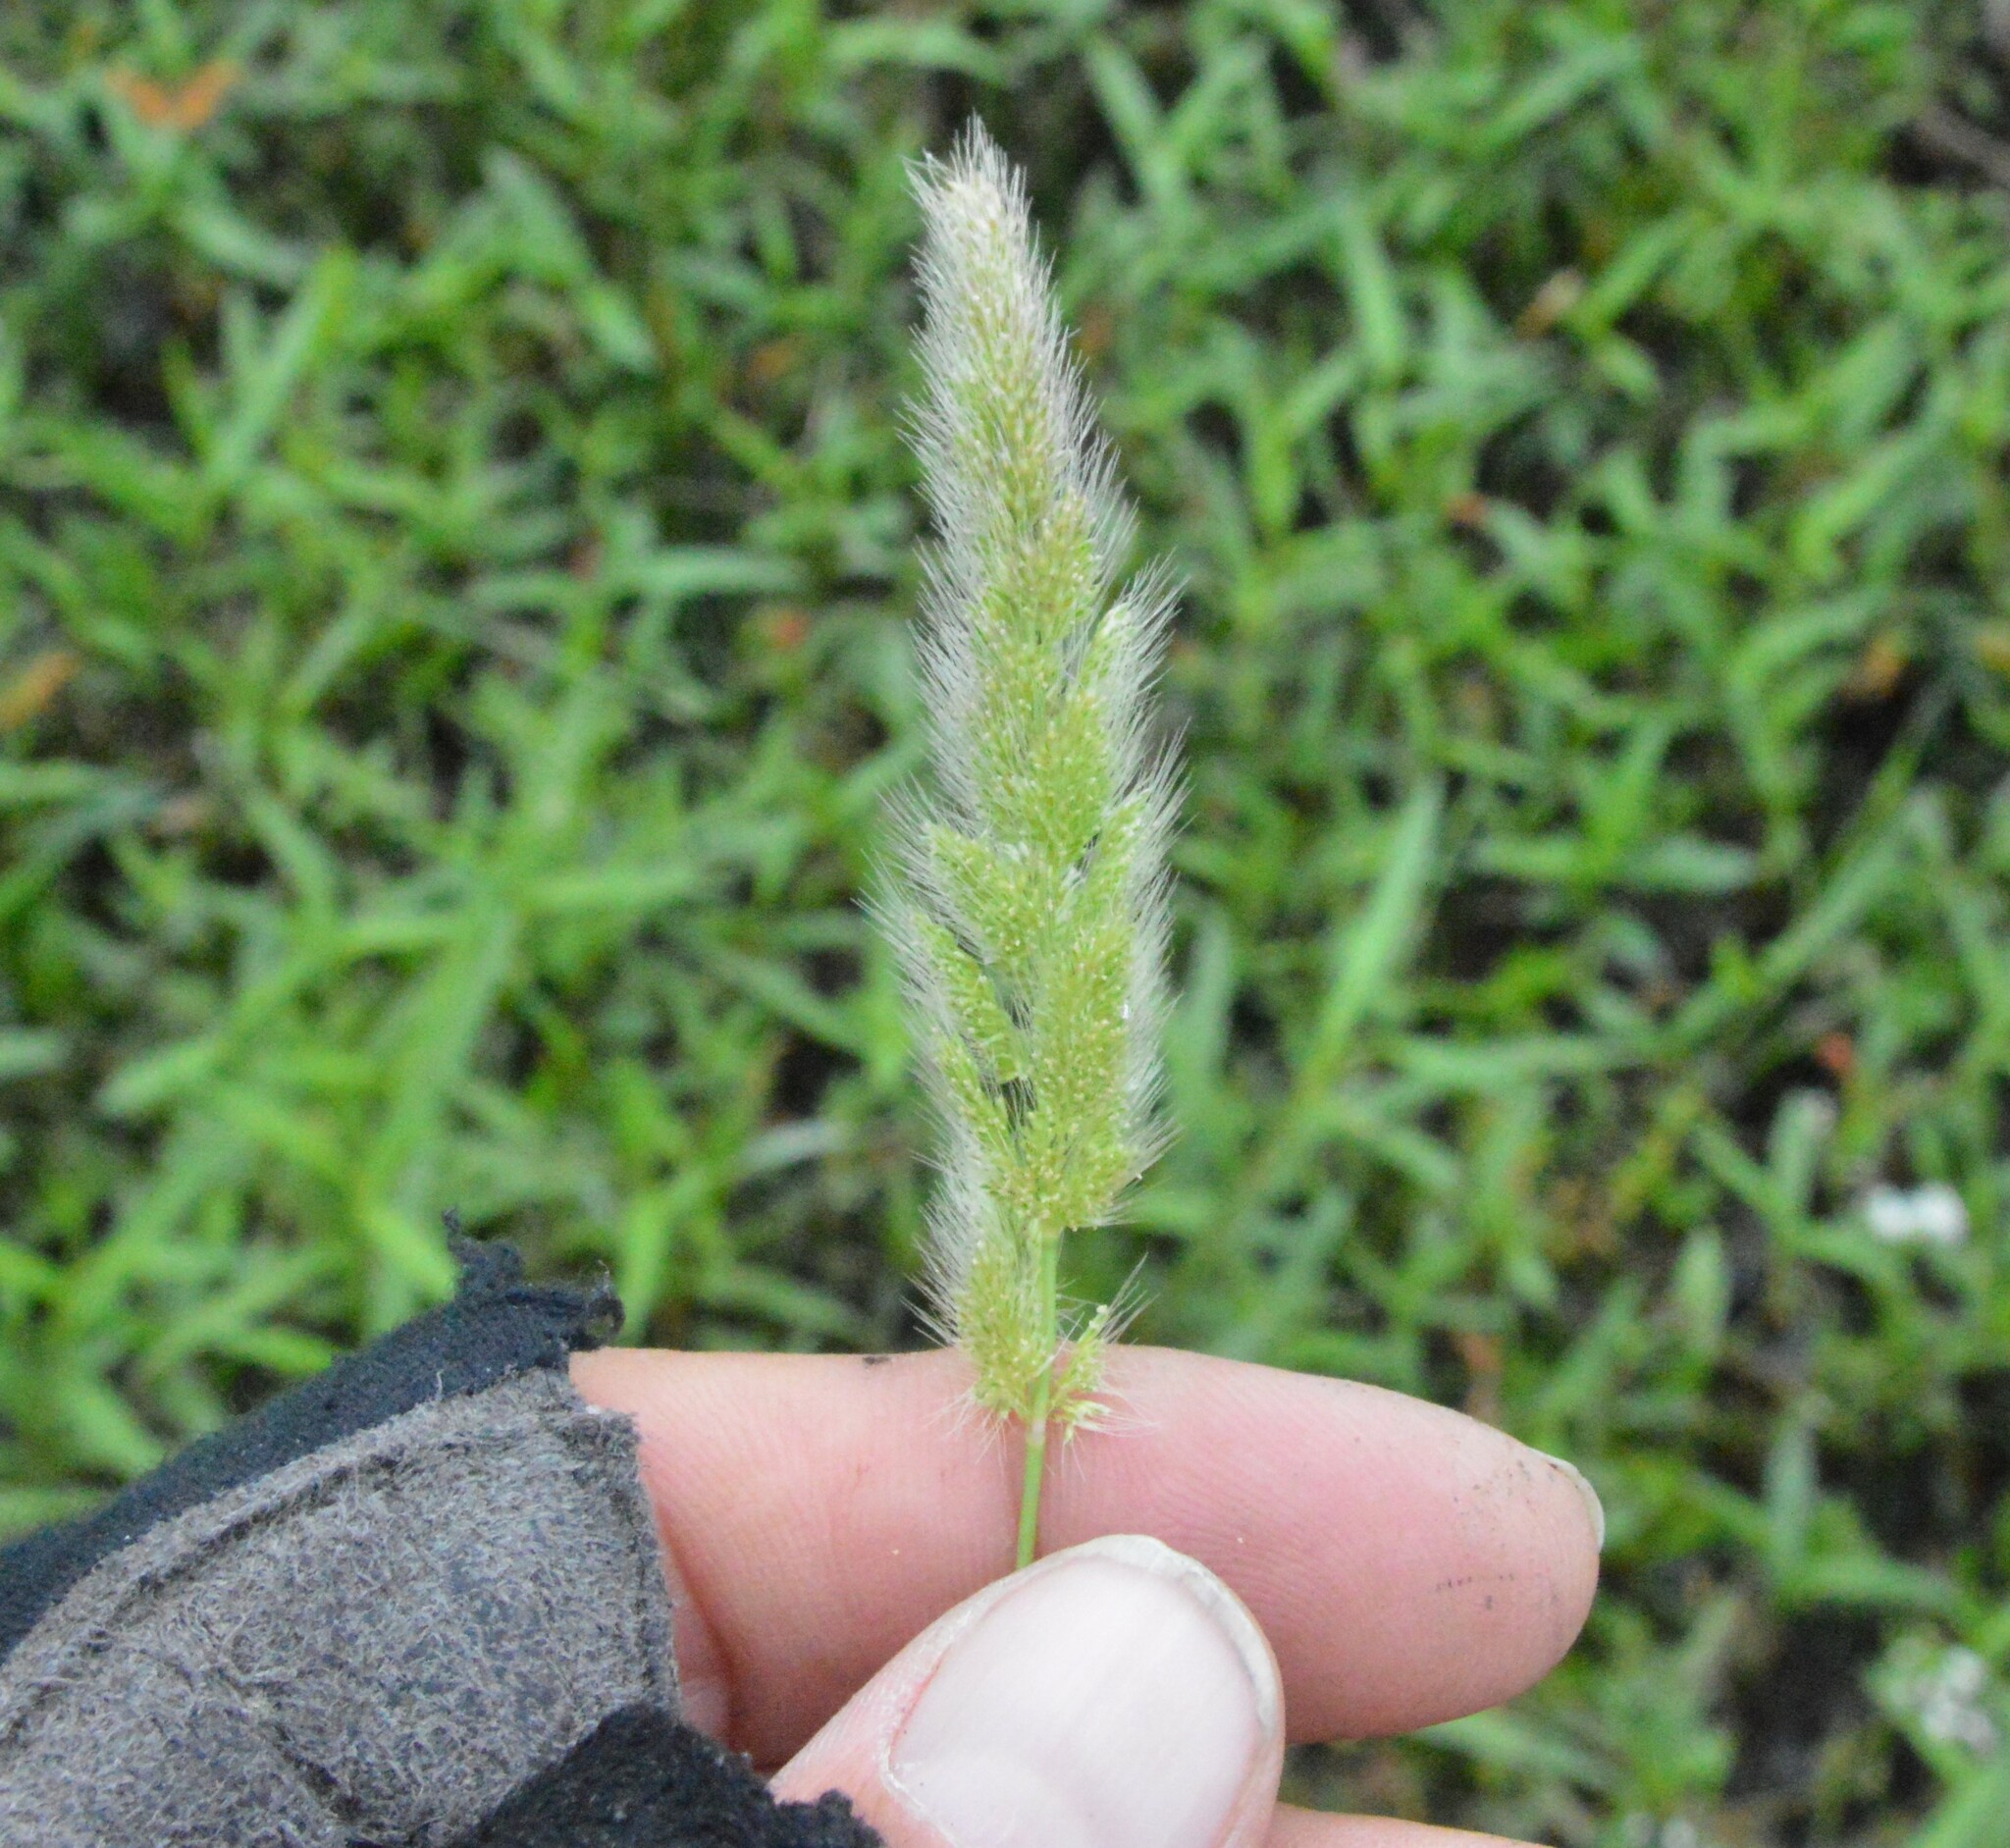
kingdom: Plantae
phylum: Tracheophyta
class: Liliopsida
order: Poales
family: Poaceae
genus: Polypogon
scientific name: Polypogon monspeliensis
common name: Annual rabbitsfoot grass
